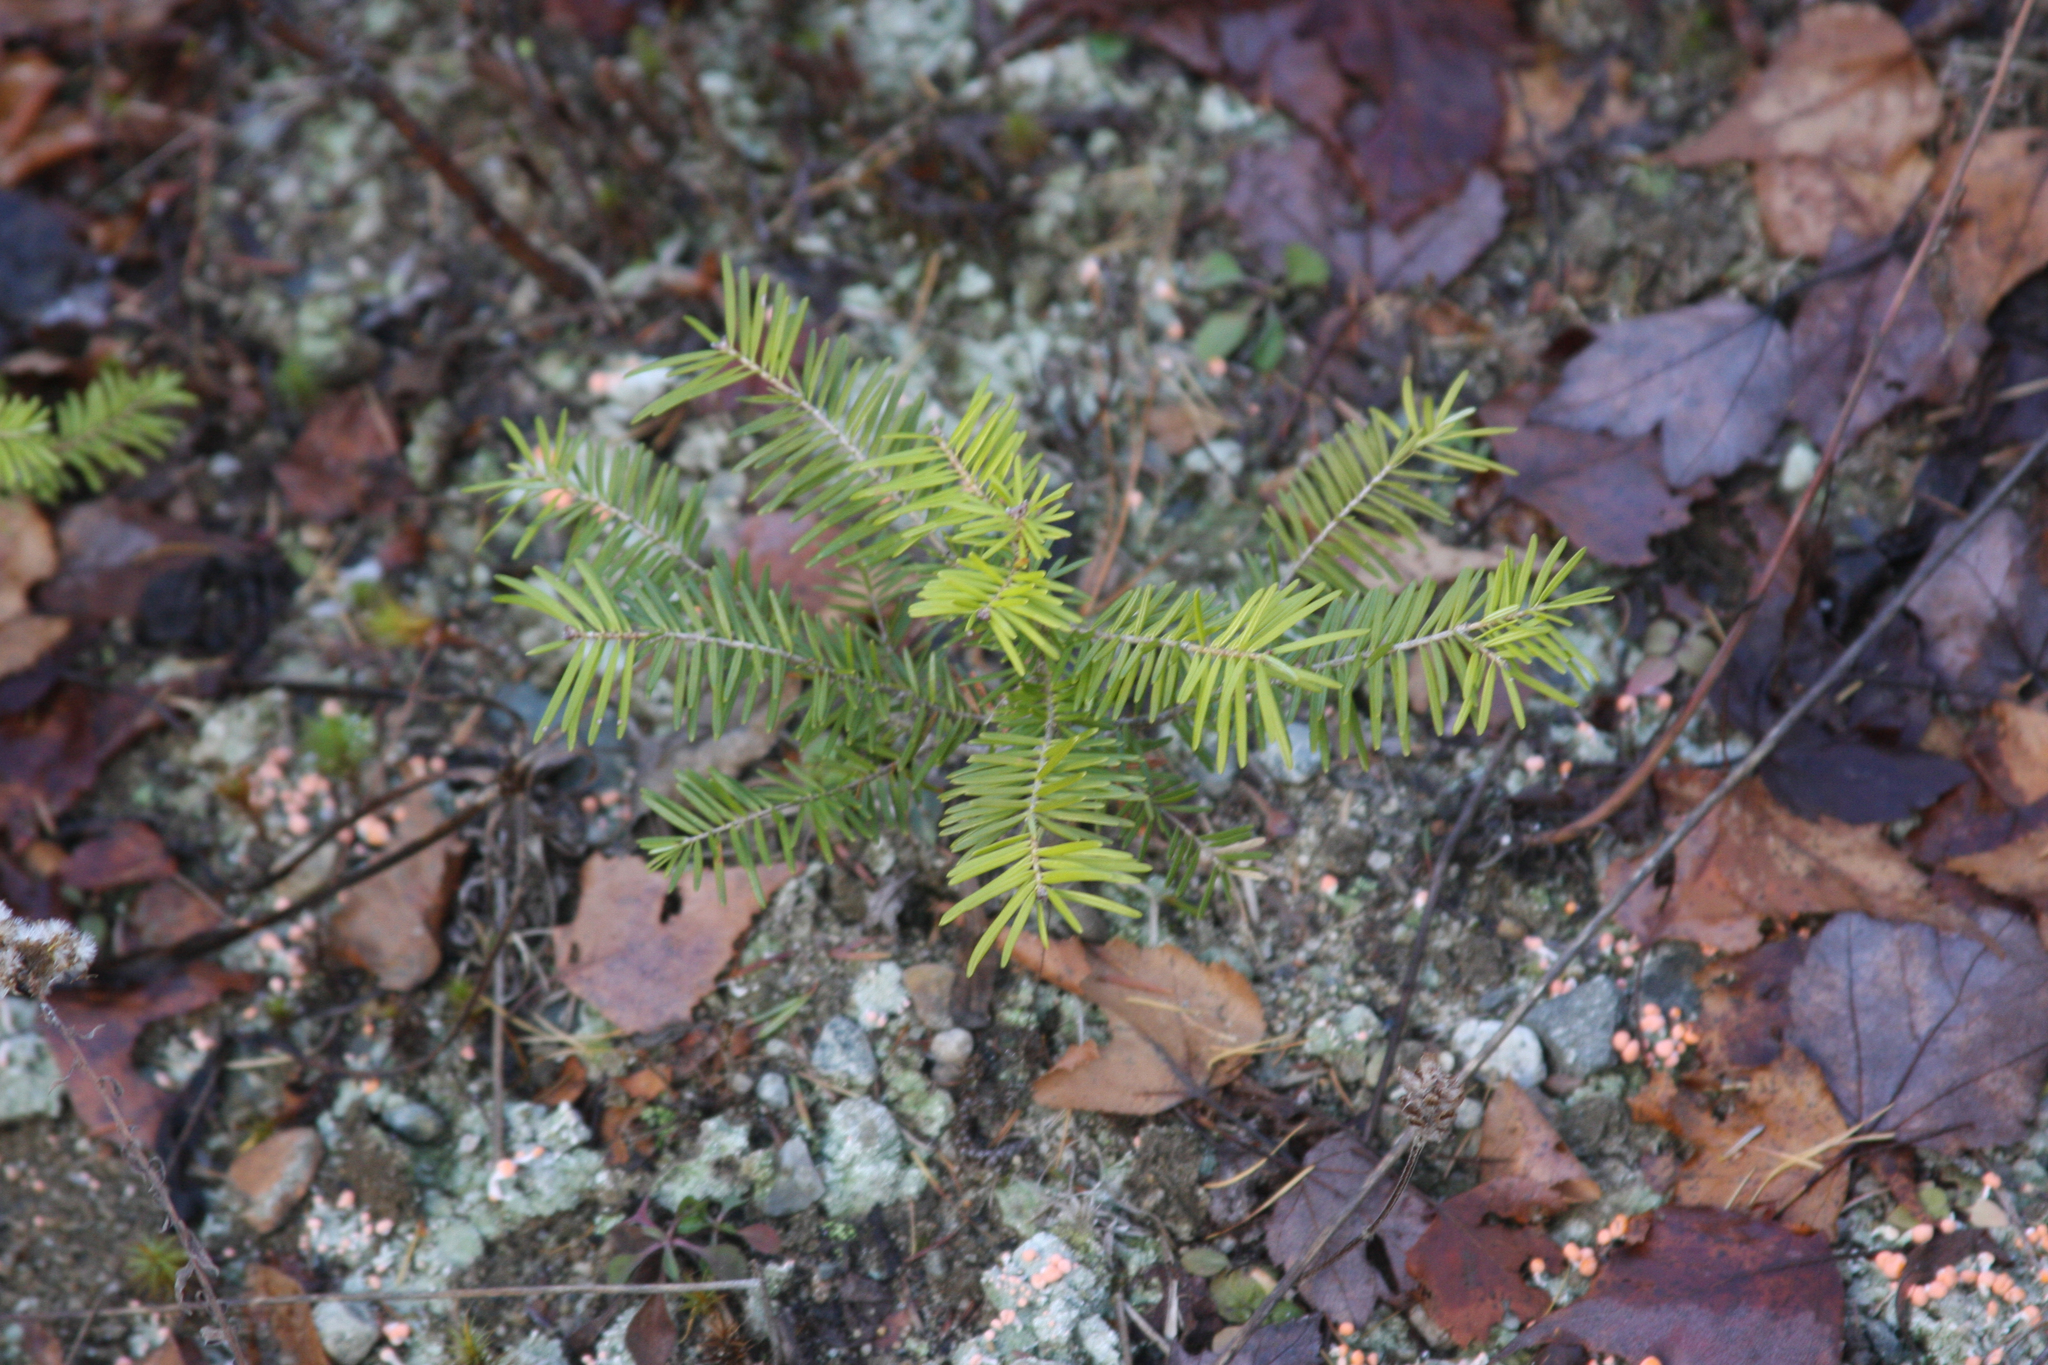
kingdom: Plantae
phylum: Tracheophyta
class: Pinopsida
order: Pinales
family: Pinaceae
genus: Abies
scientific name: Abies balsamea
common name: Balsam fir
